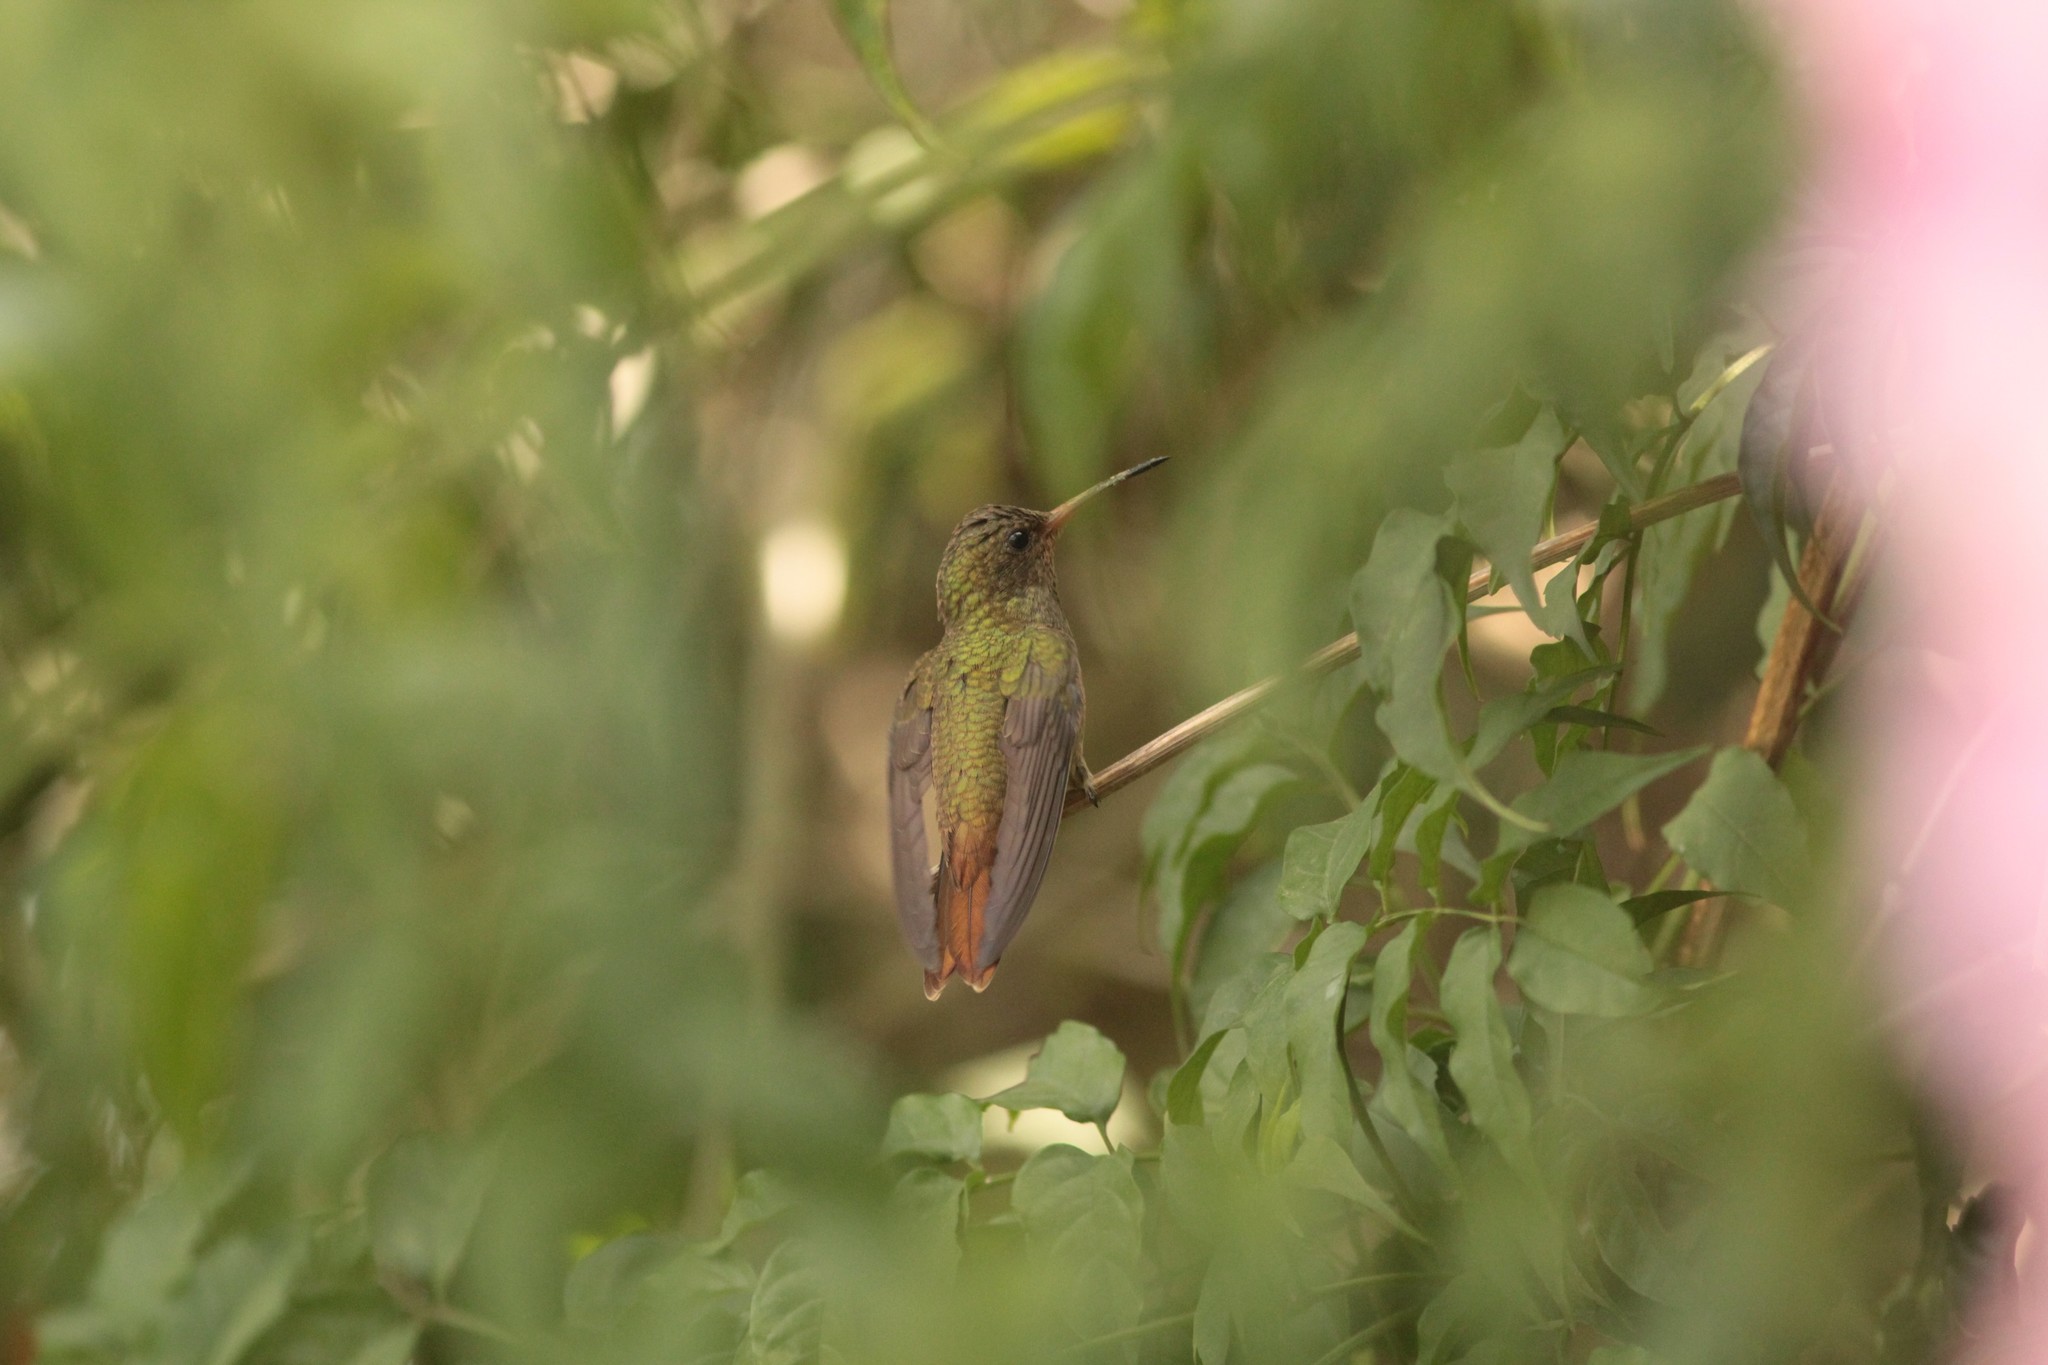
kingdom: Animalia
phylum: Chordata
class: Aves
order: Apodiformes
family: Trochilidae
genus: Hylocharis
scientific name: Hylocharis chrysura
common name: Gilded sapphire
